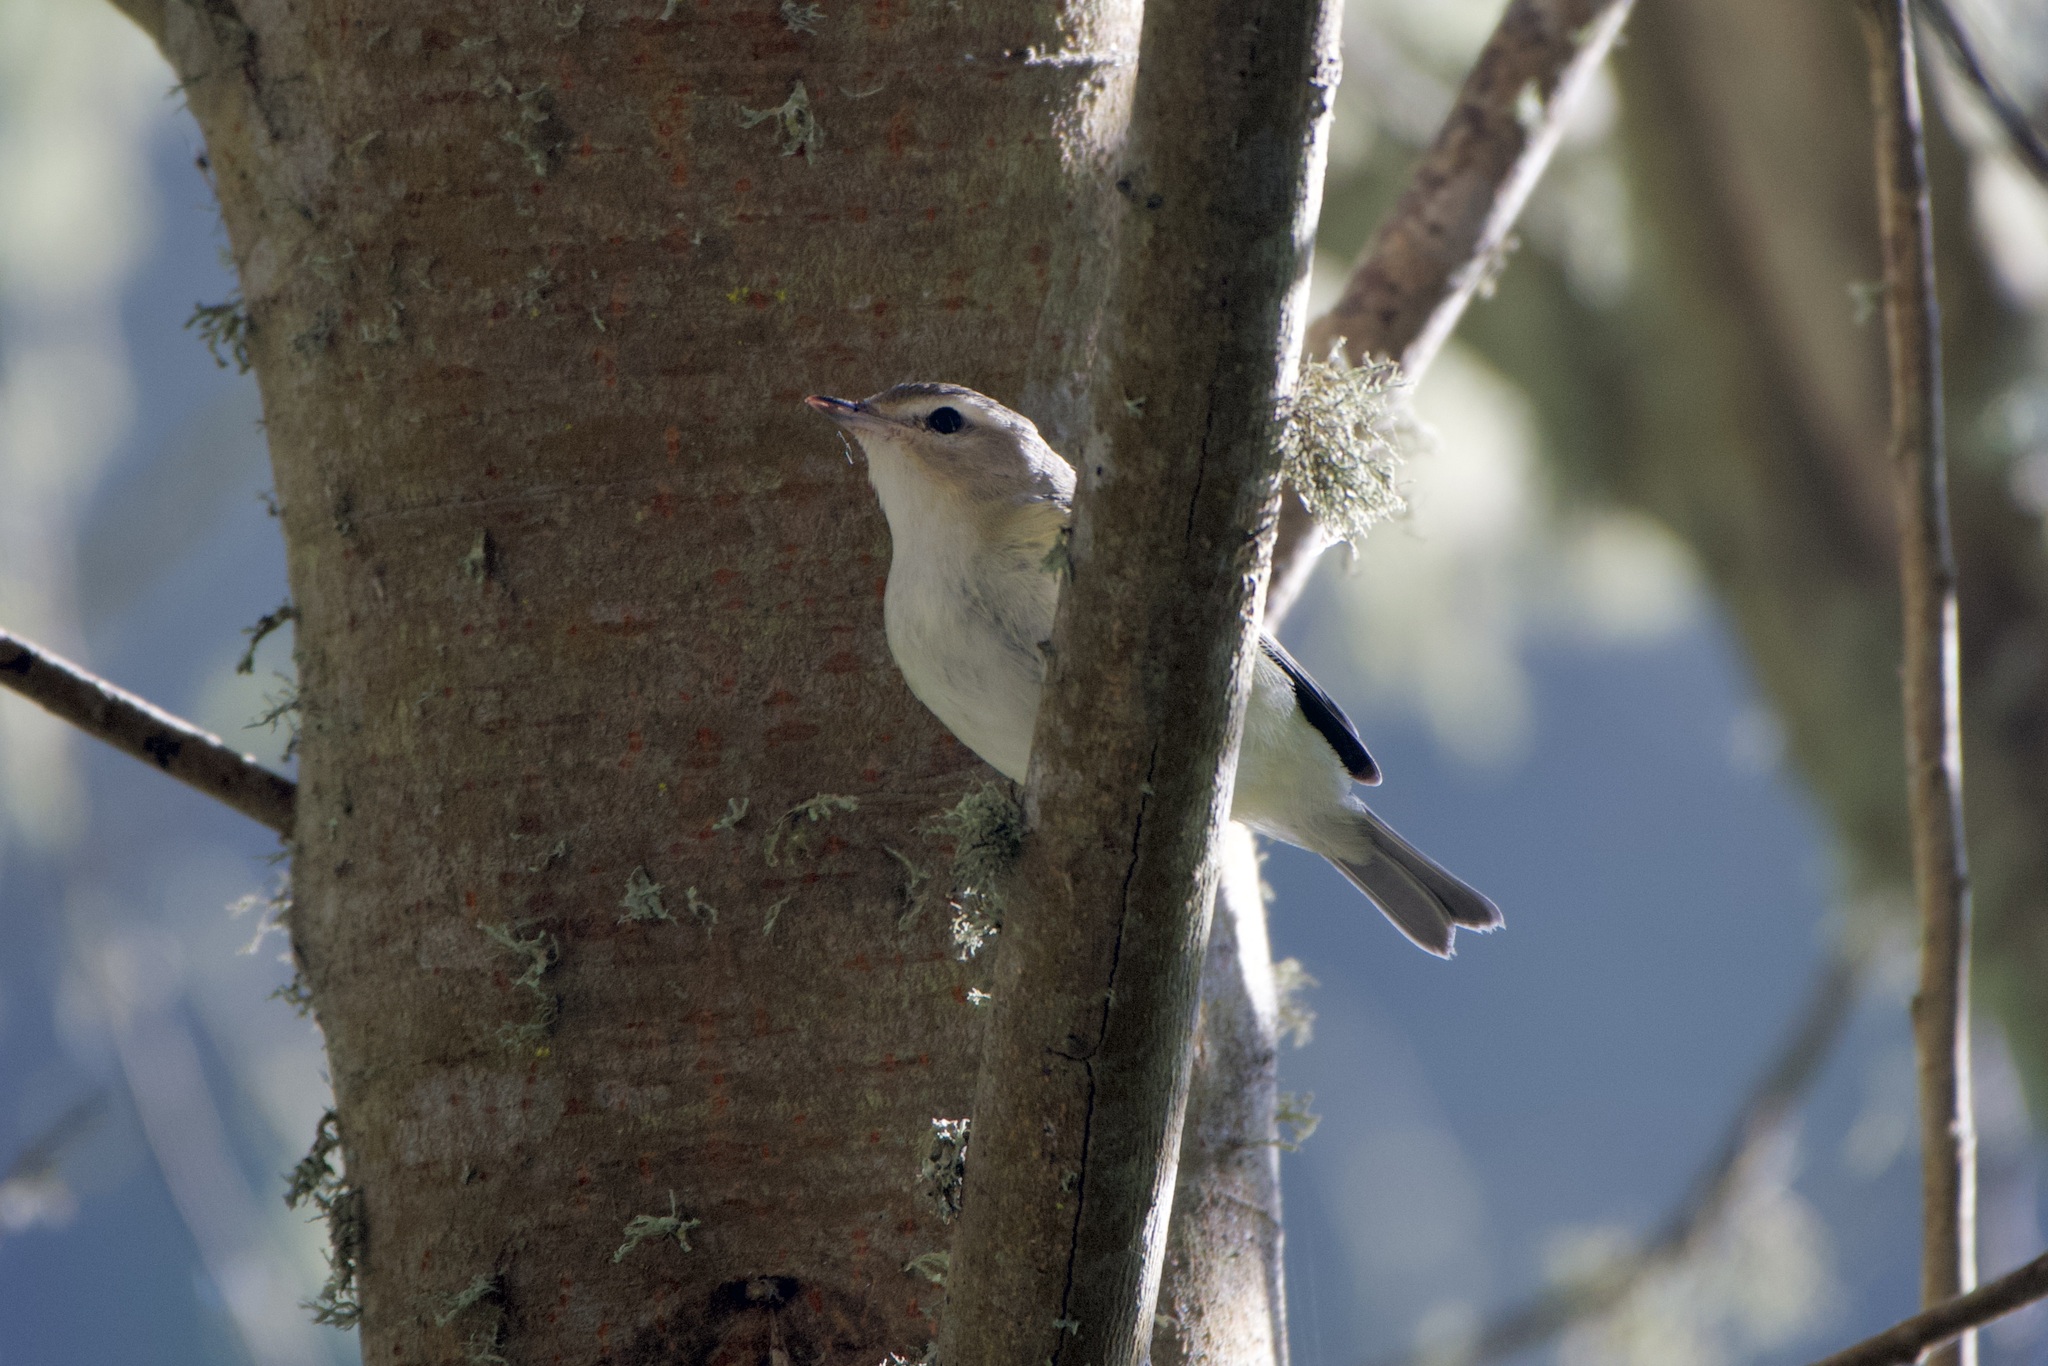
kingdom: Animalia
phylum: Chordata
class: Aves
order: Passeriformes
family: Vireonidae
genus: Vireo
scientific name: Vireo gilvus
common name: Warbling vireo
